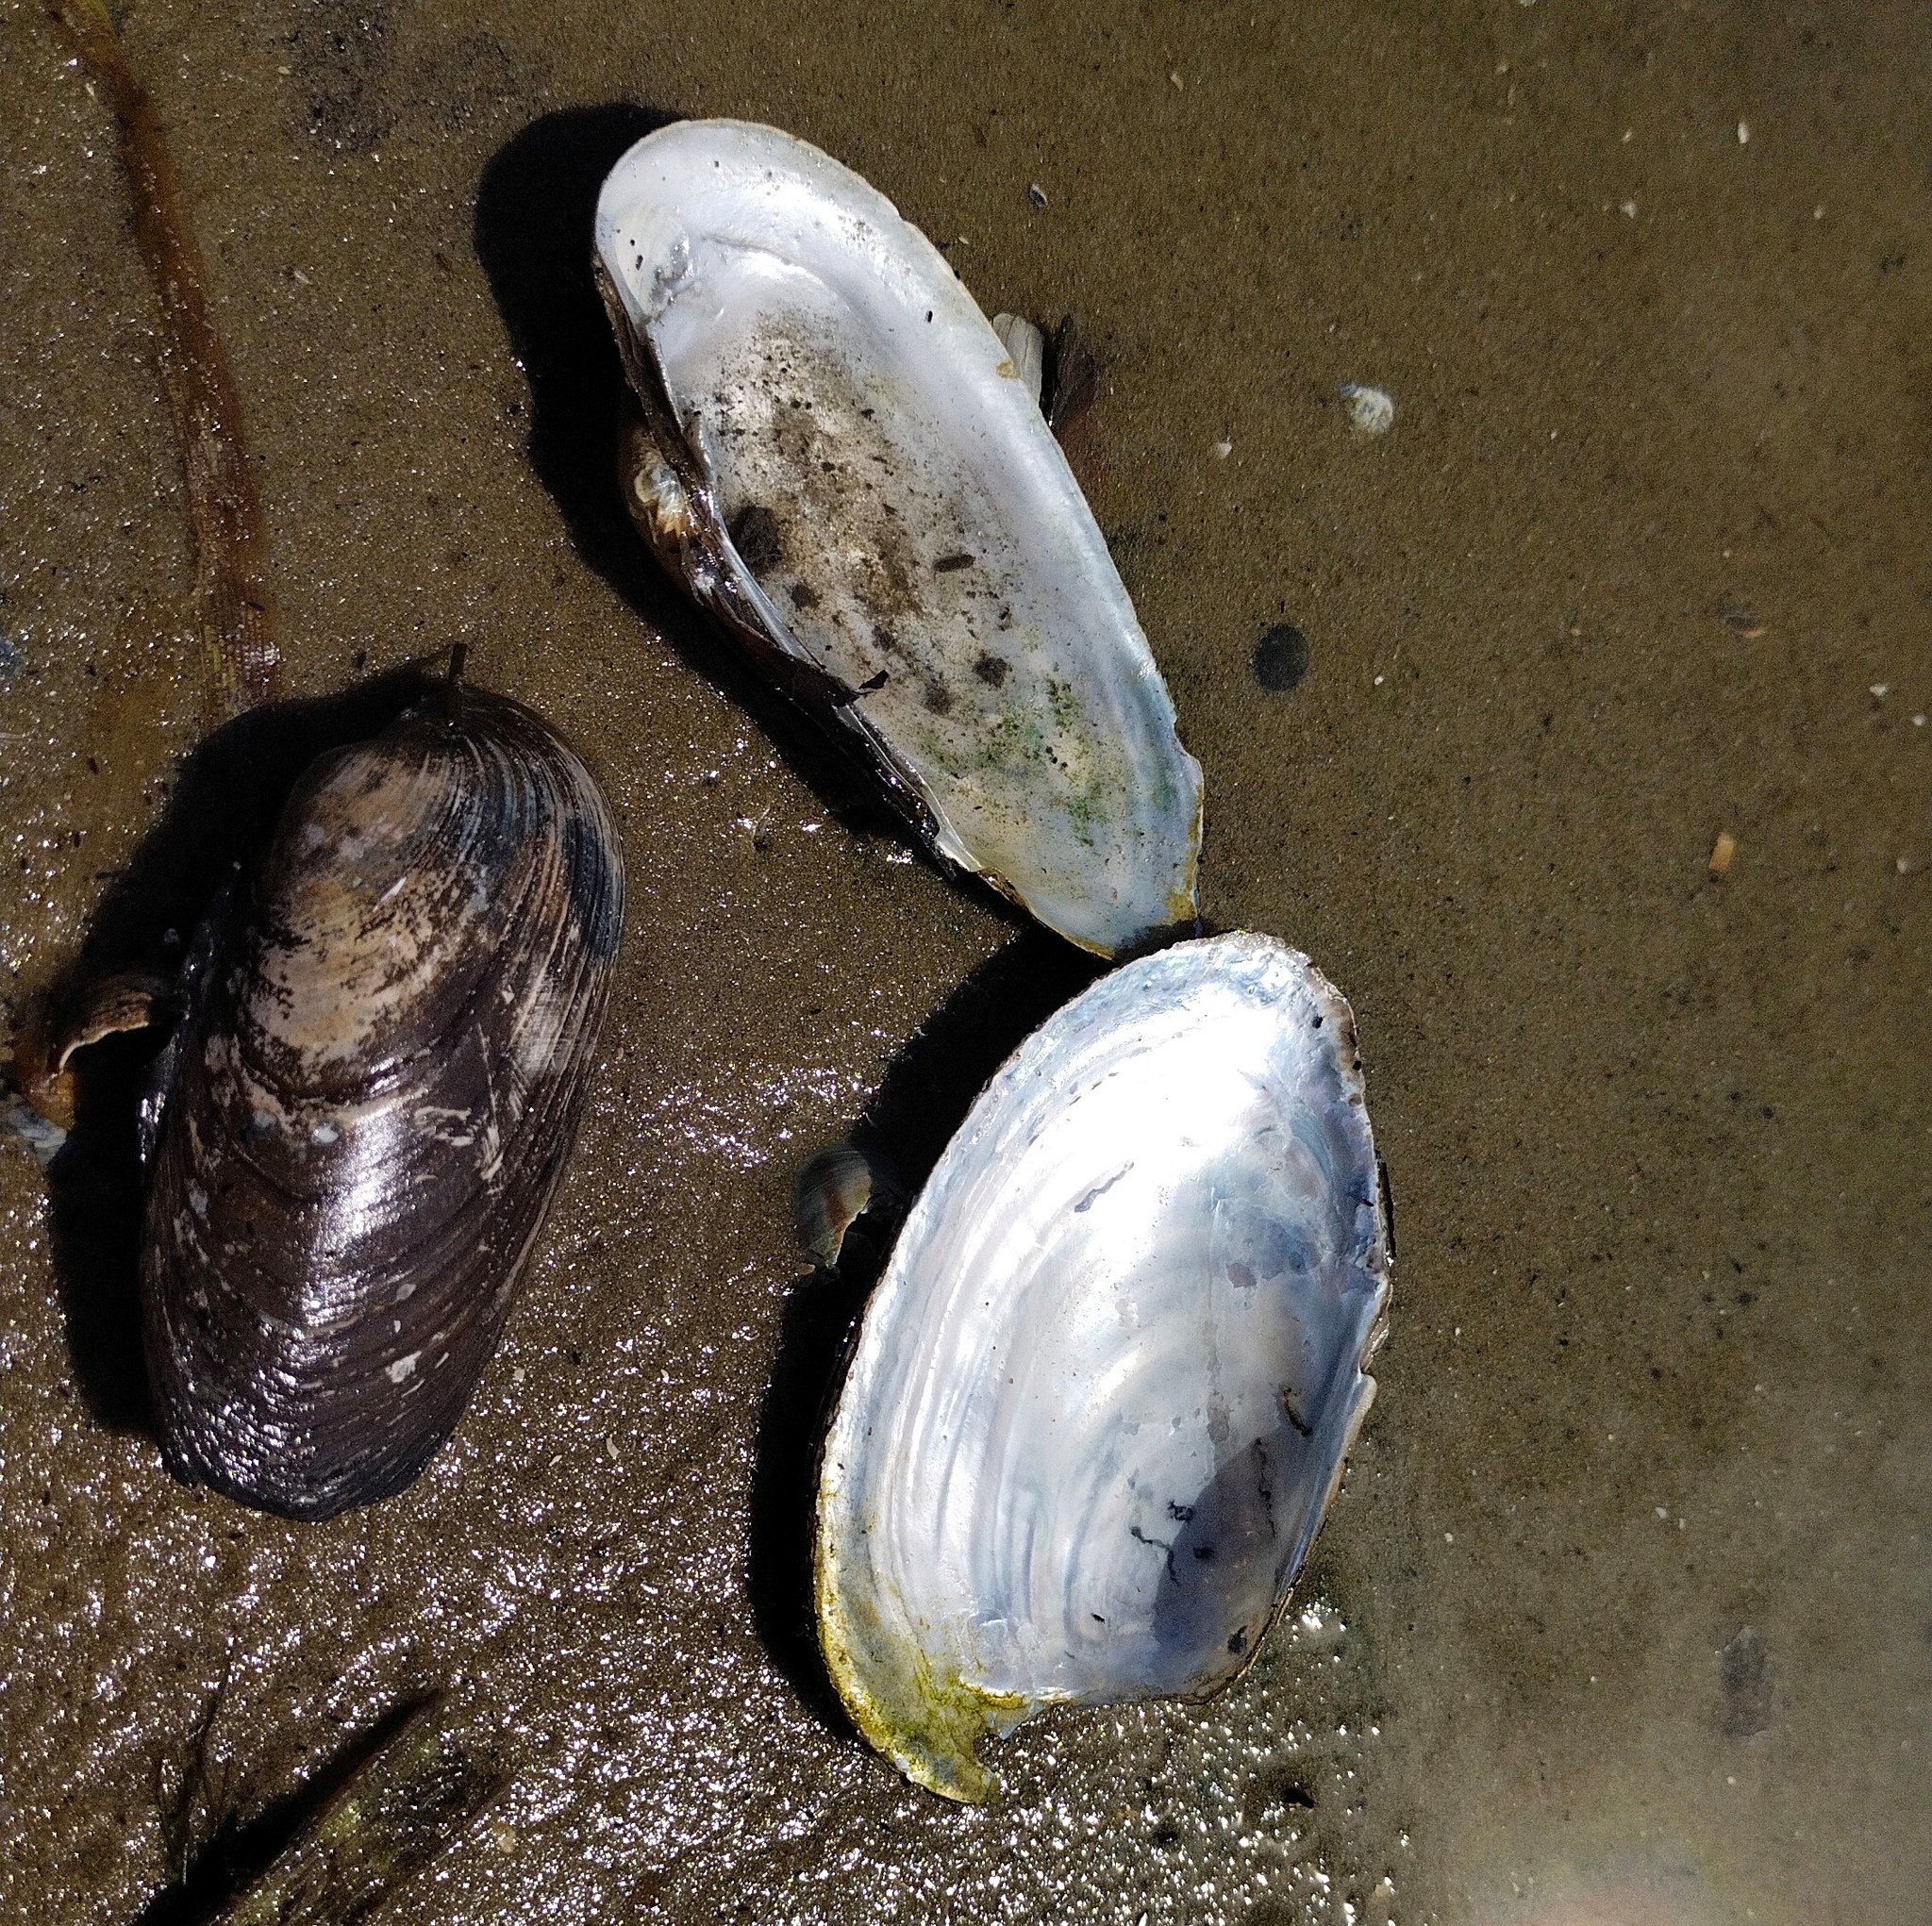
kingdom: Animalia
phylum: Mollusca
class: Bivalvia
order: Unionida
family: Unionidae
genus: Unio
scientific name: Unio pictorum
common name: Painter's mussel
